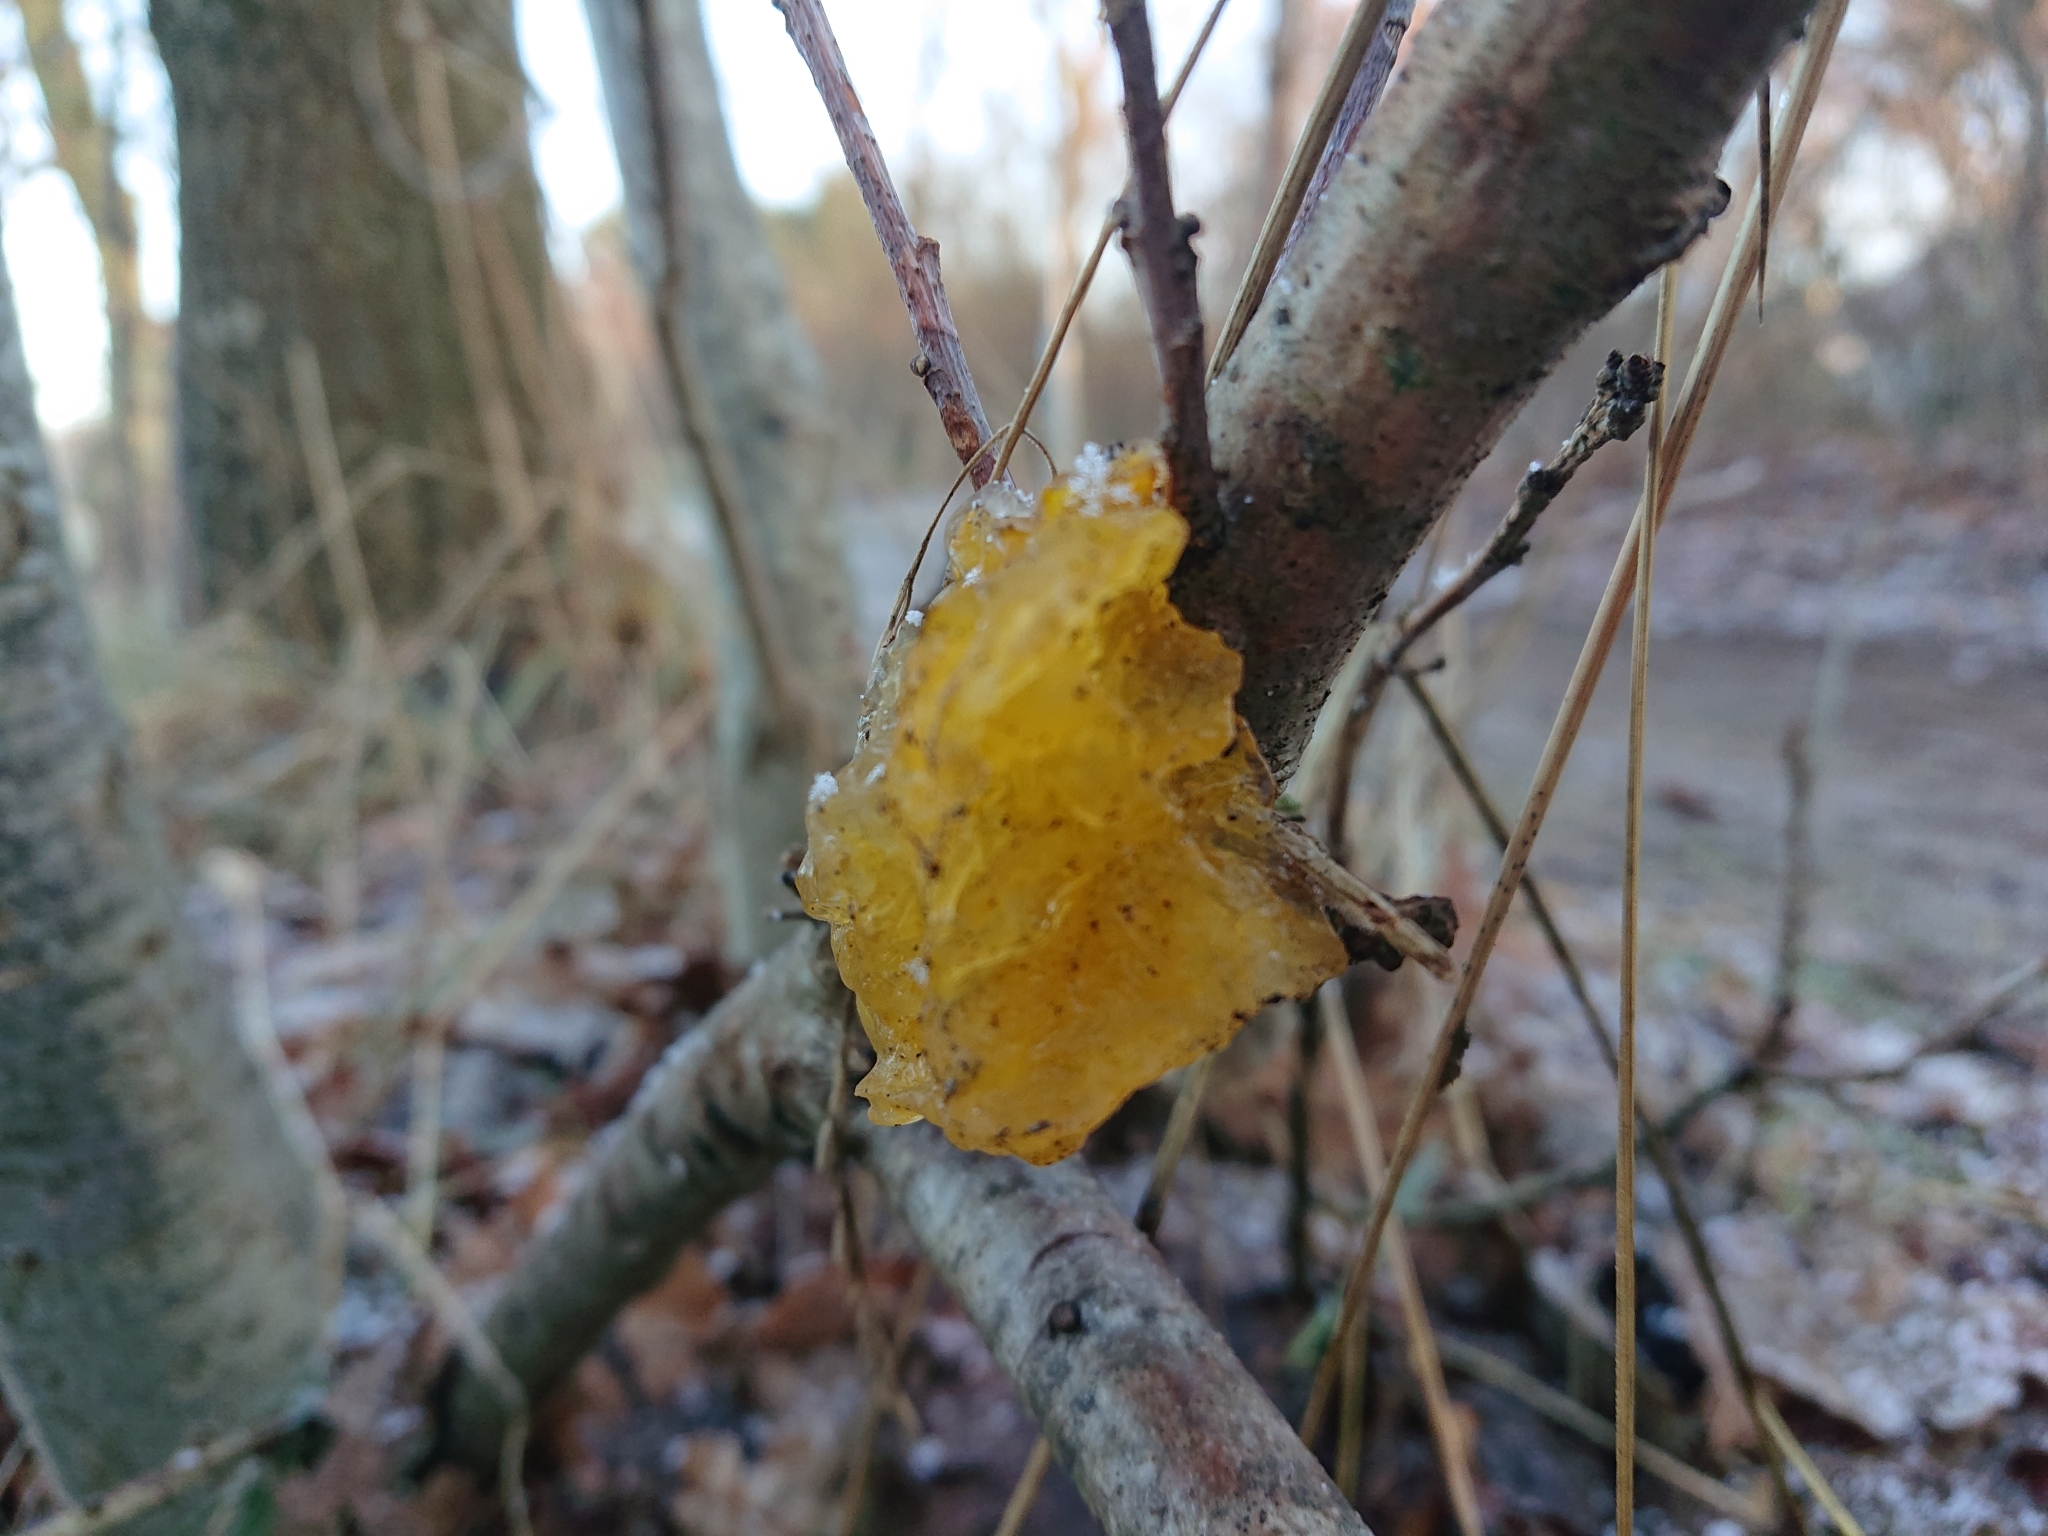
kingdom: Fungi
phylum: Basidiomycota
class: Tremellomycetes
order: Tremellales
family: Tremellaceae
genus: Tremella
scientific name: Tremella mesenterica
